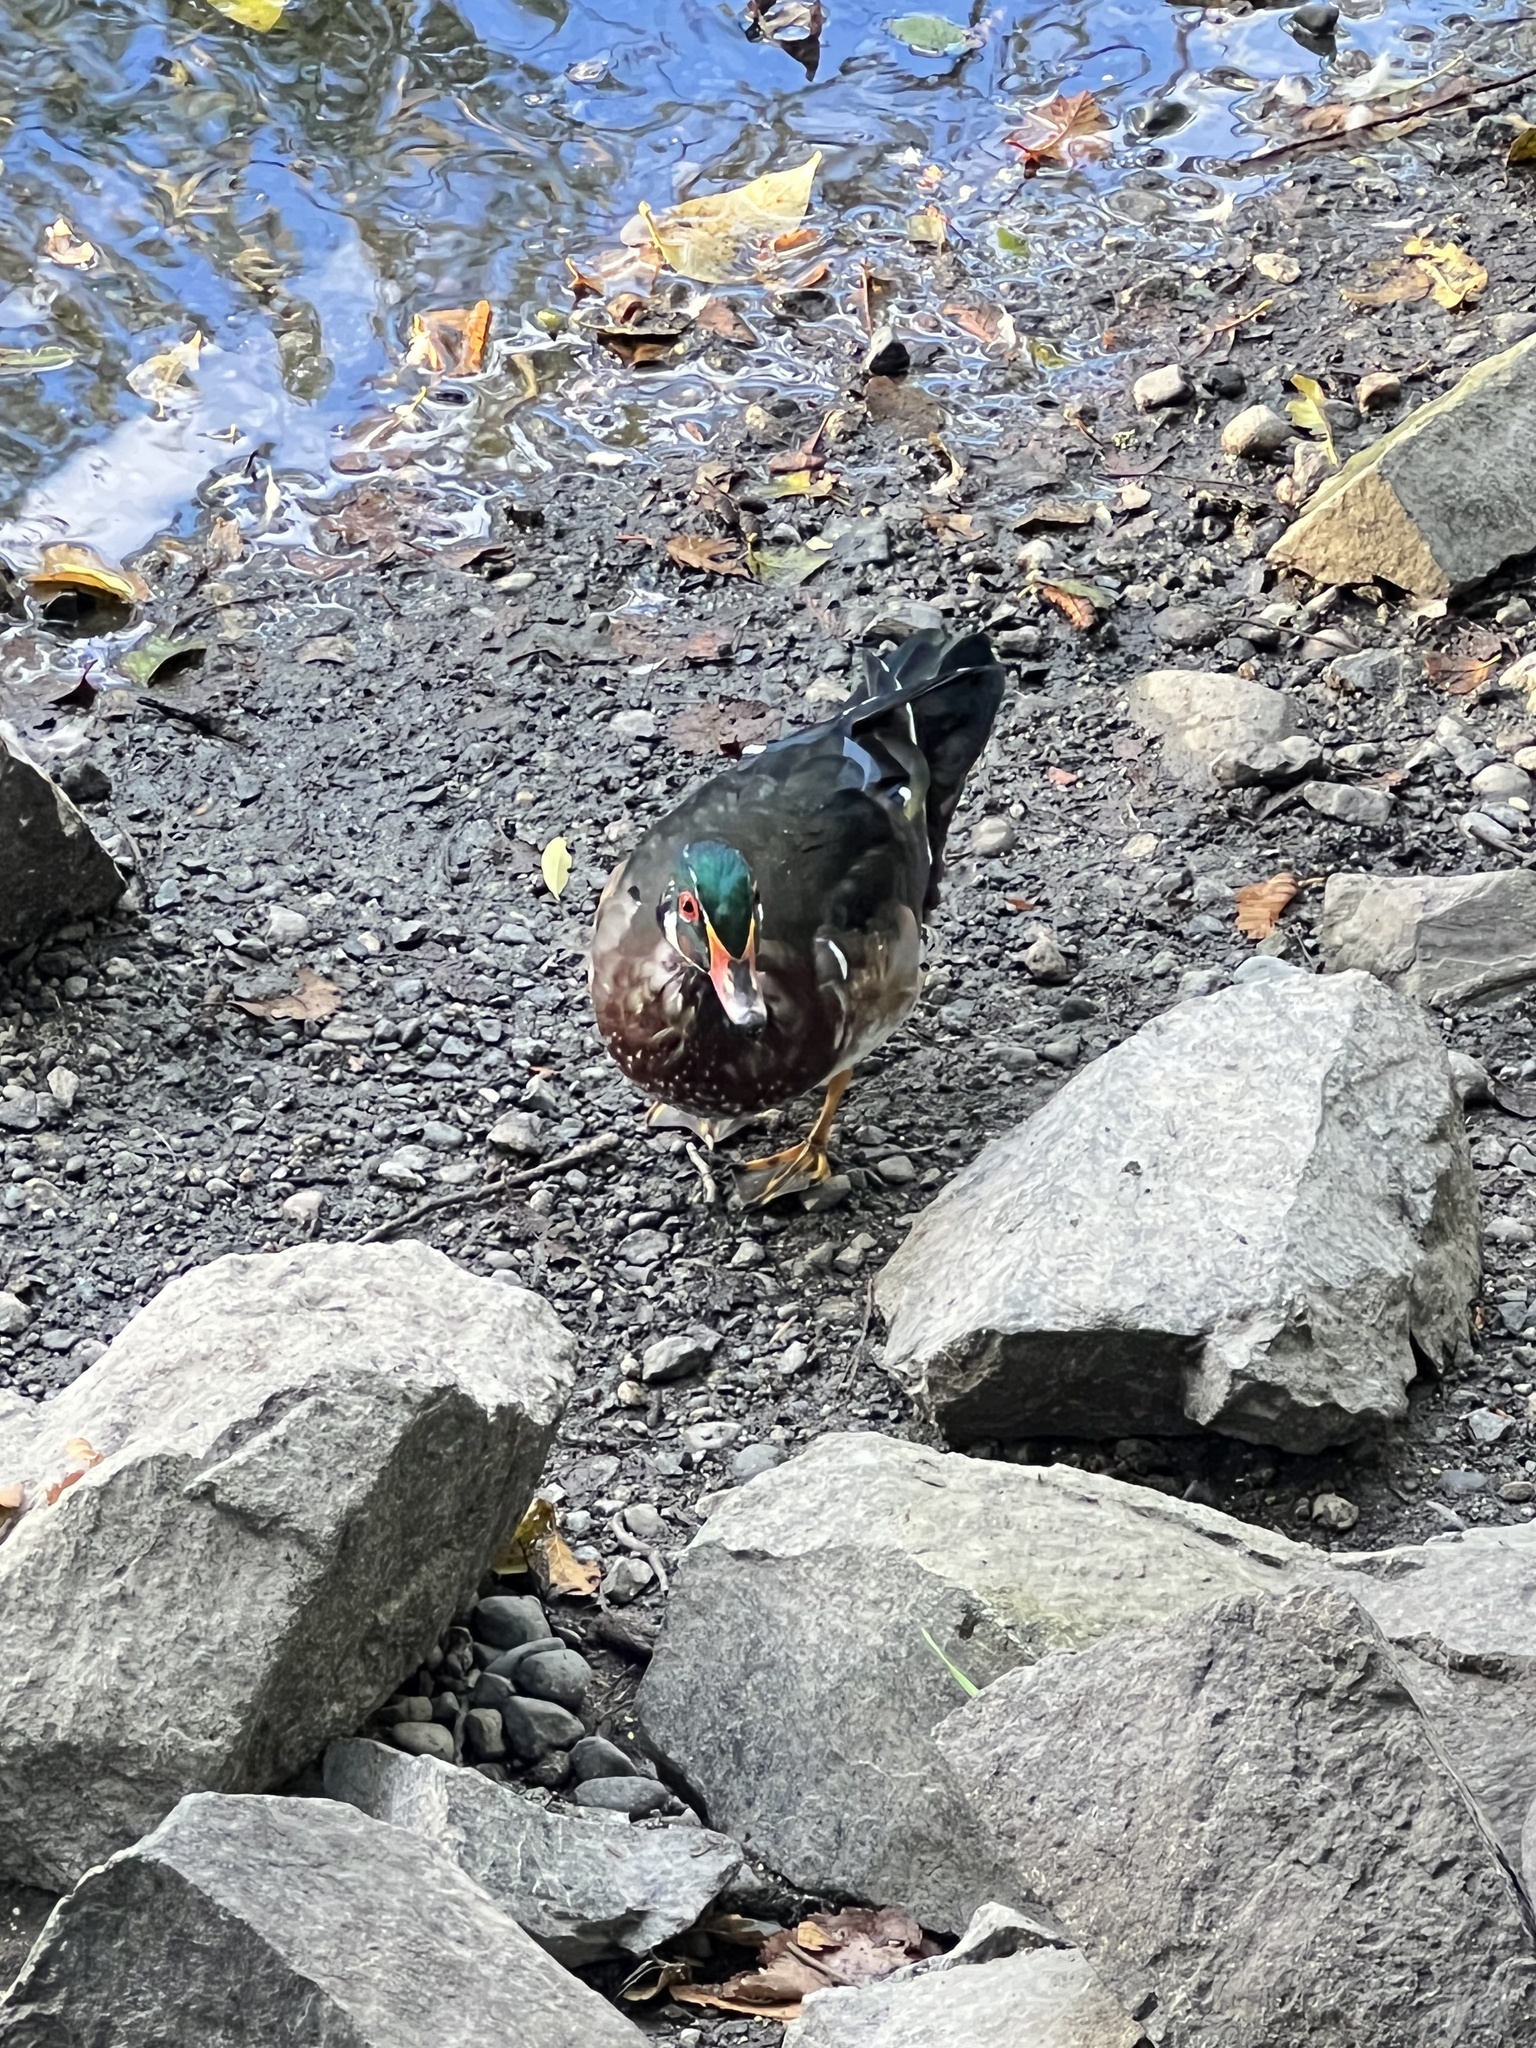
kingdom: Animalia
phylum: Chordata
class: Aves
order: Anseriformes
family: Anatidae
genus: Aix
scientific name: Aix sponsa
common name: Wood duck
